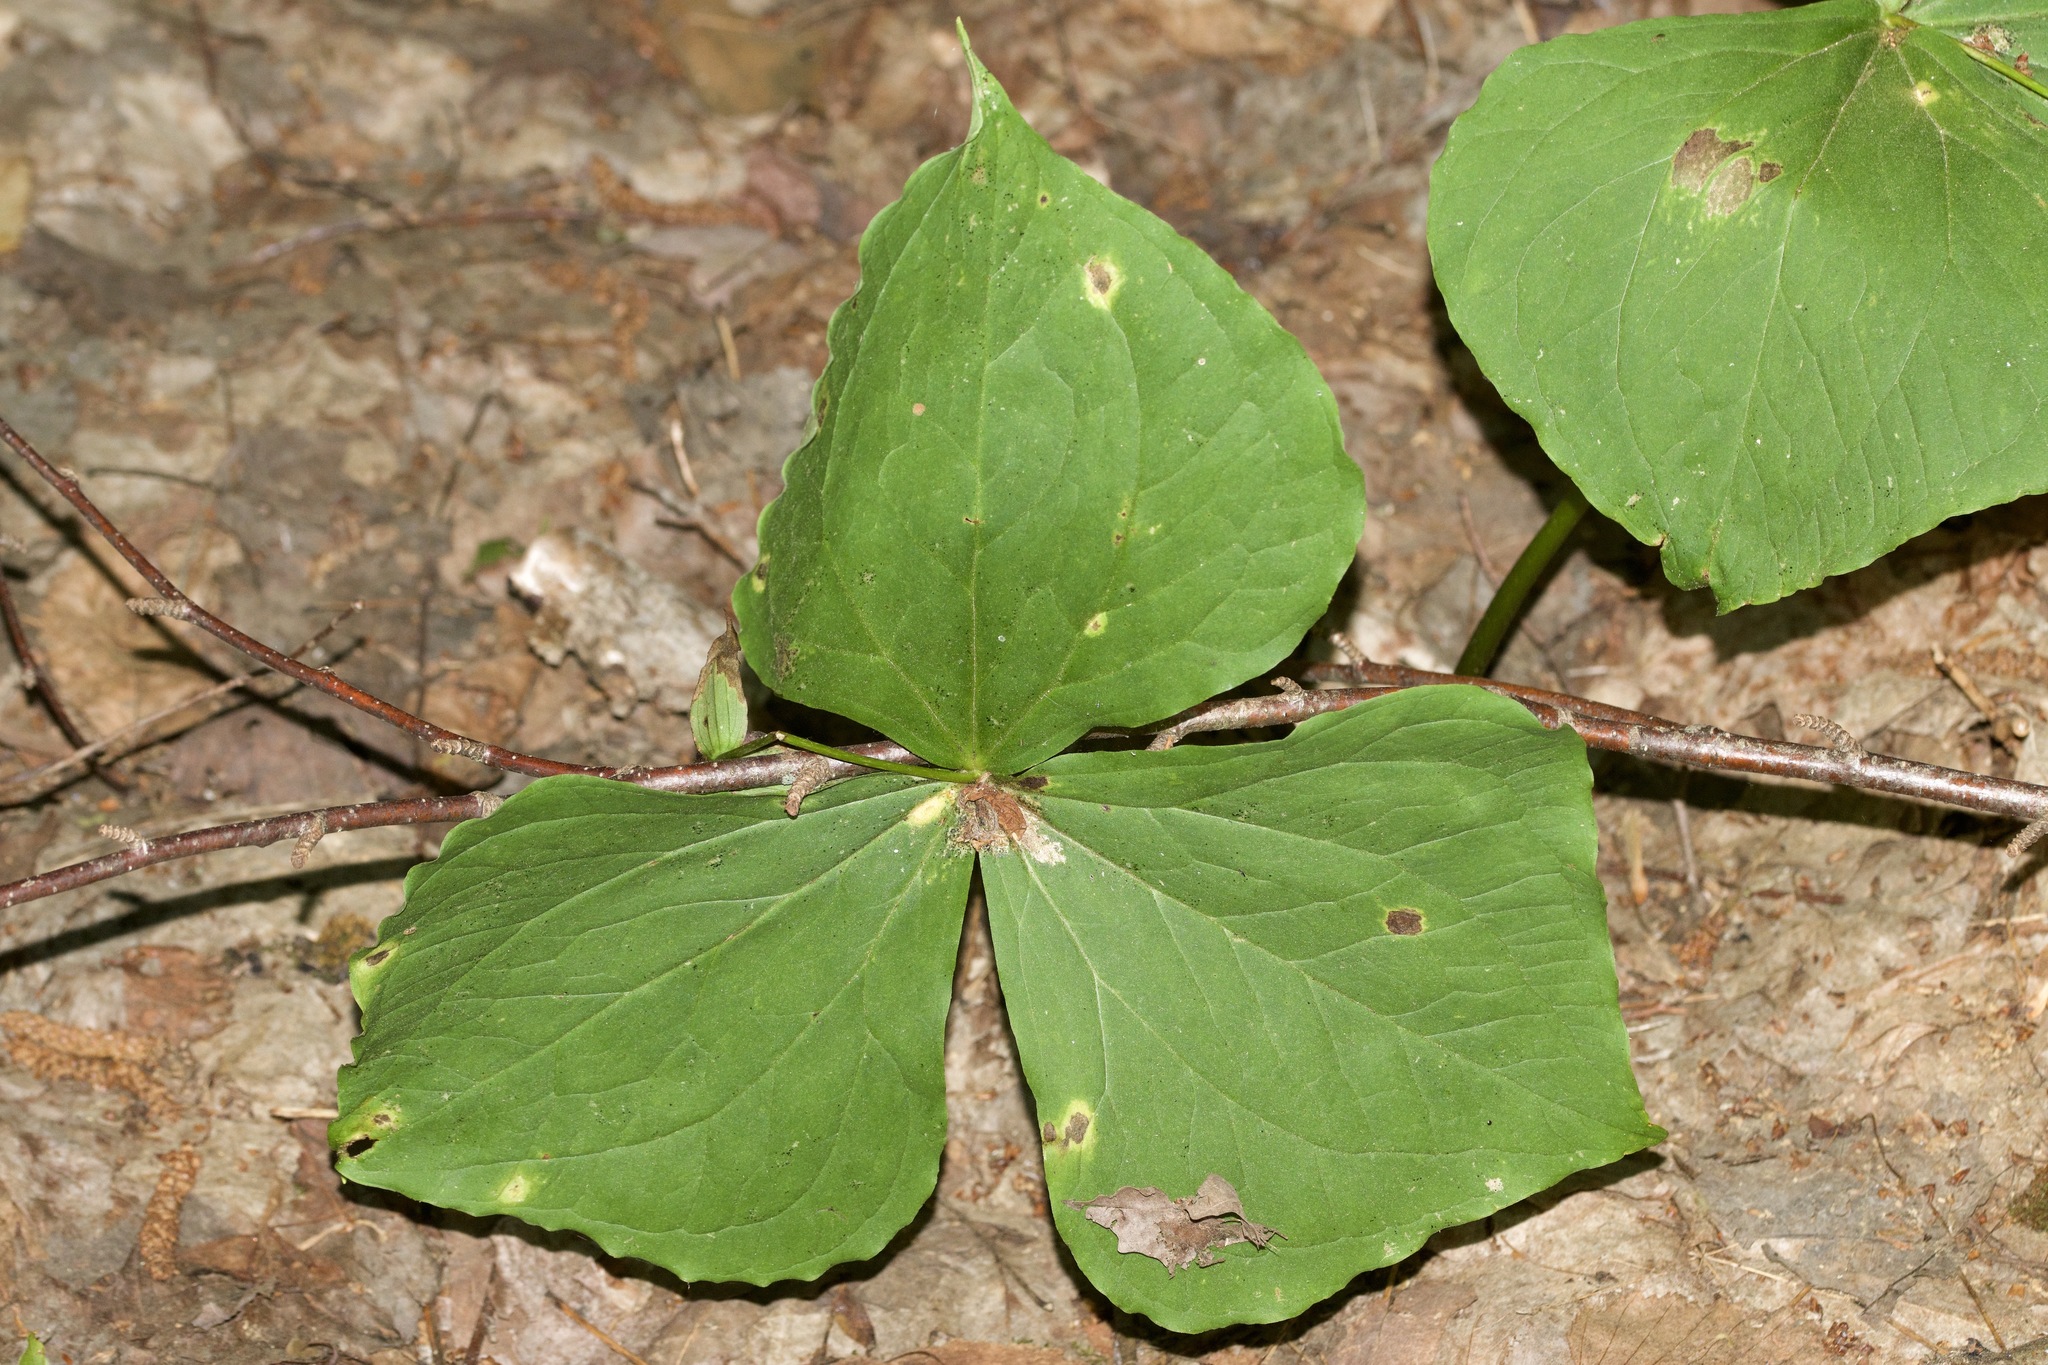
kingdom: Plantae
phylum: Tracheophyta
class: Liliopsida
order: Liliales
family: Melanthiaceae
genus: Trillium
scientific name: Trillium erectum
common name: Purple trillium
